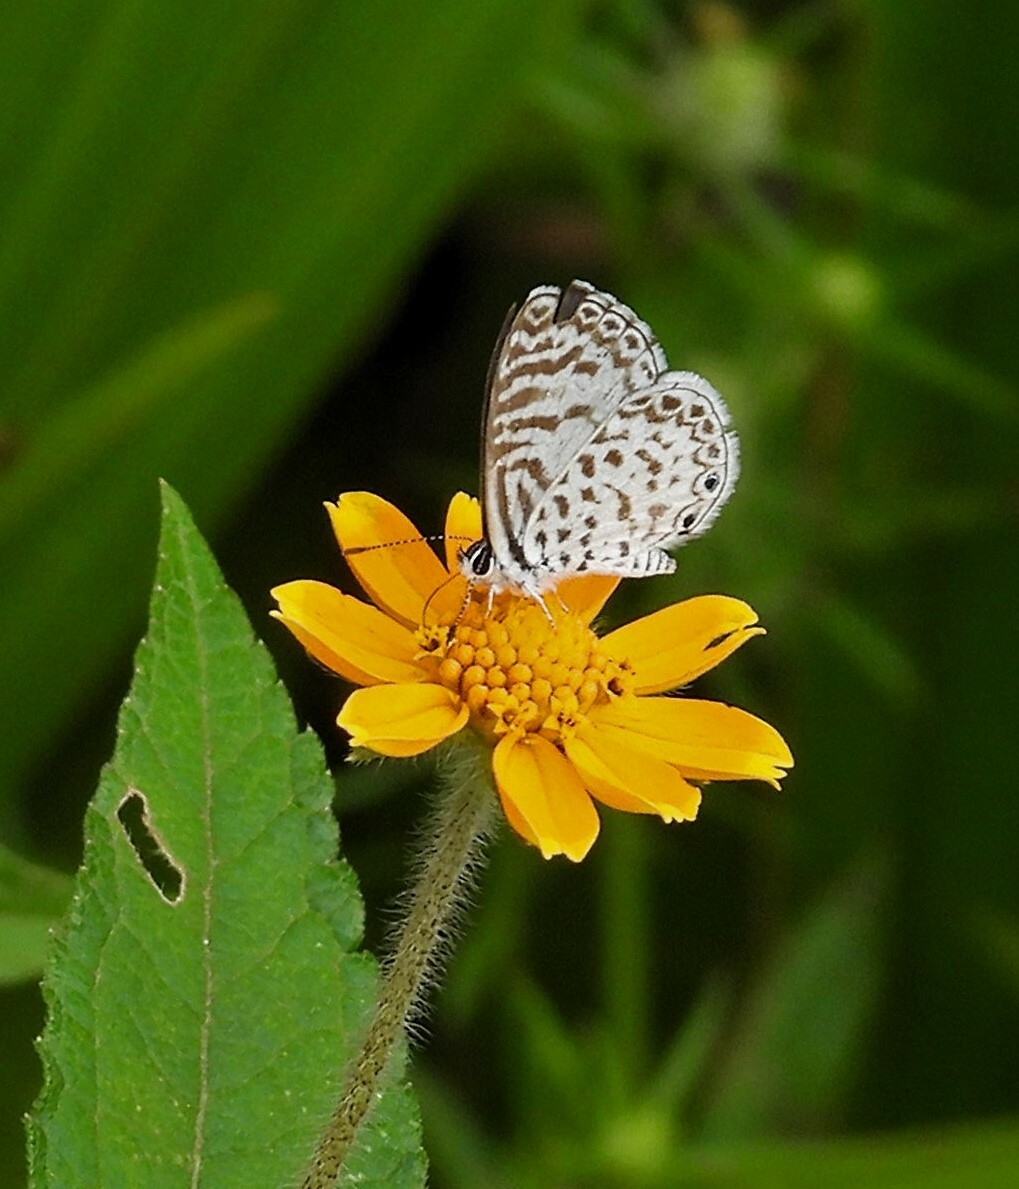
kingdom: Animalia
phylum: Arthropoda
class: Insecta
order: Lepidoptera
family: Lycaenidae
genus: Leptotes
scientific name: Leptotes cassius
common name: Cassius blue
